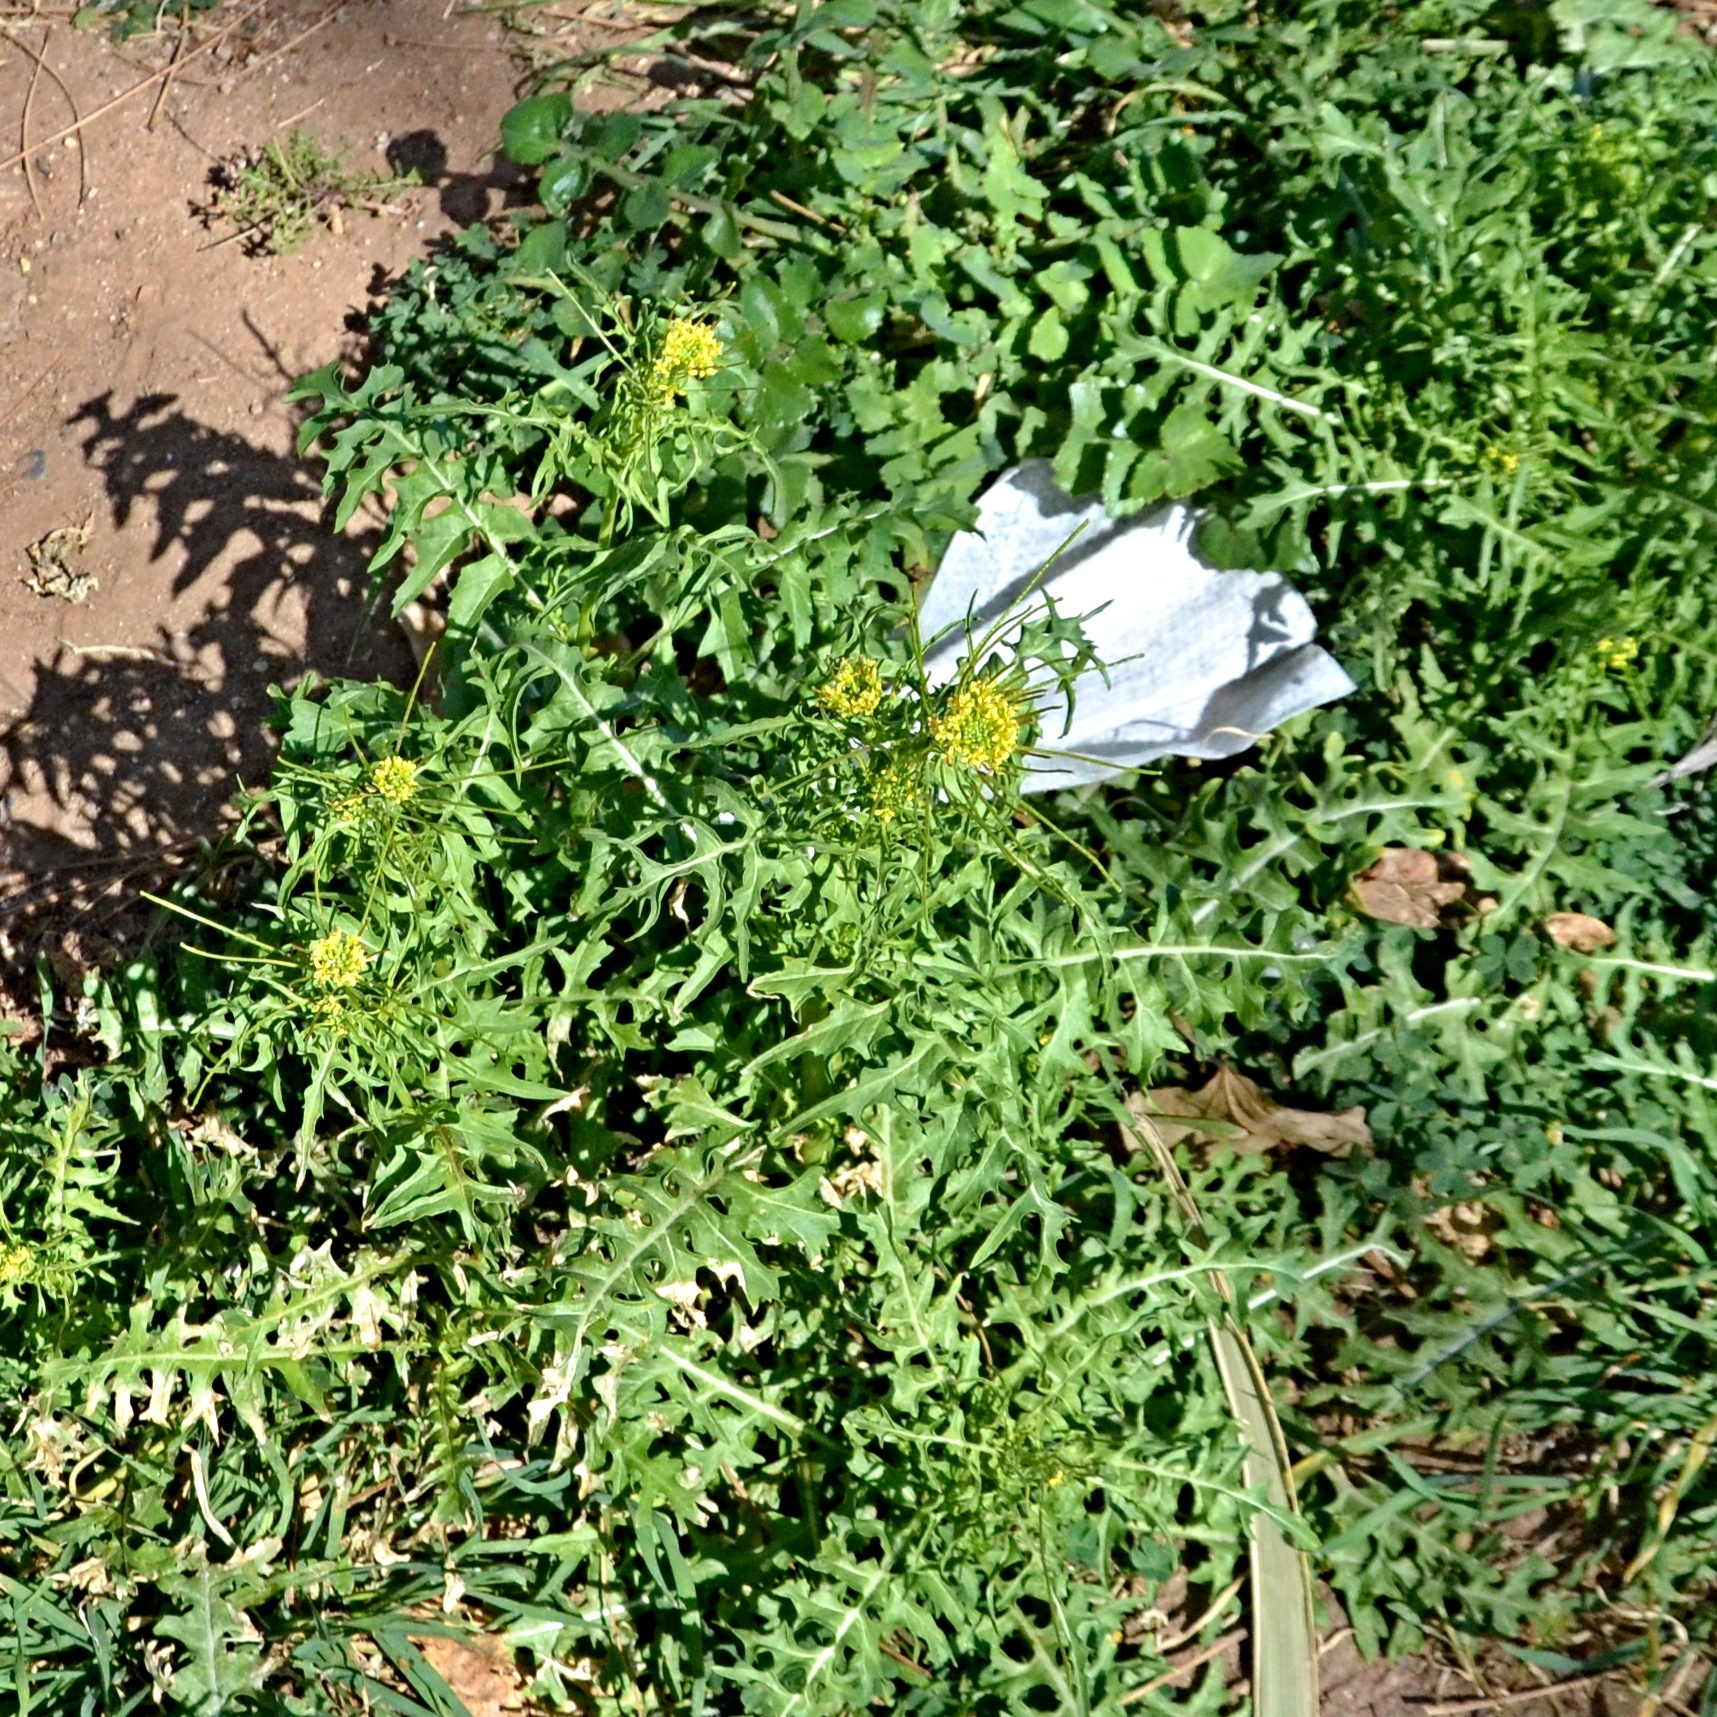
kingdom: Plantae
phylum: Tracheophyta
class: Magnoliopsida
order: Brassicales
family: Brassicaceae
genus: Sisymbrium
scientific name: Sisymbrium irio
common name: London rocket
